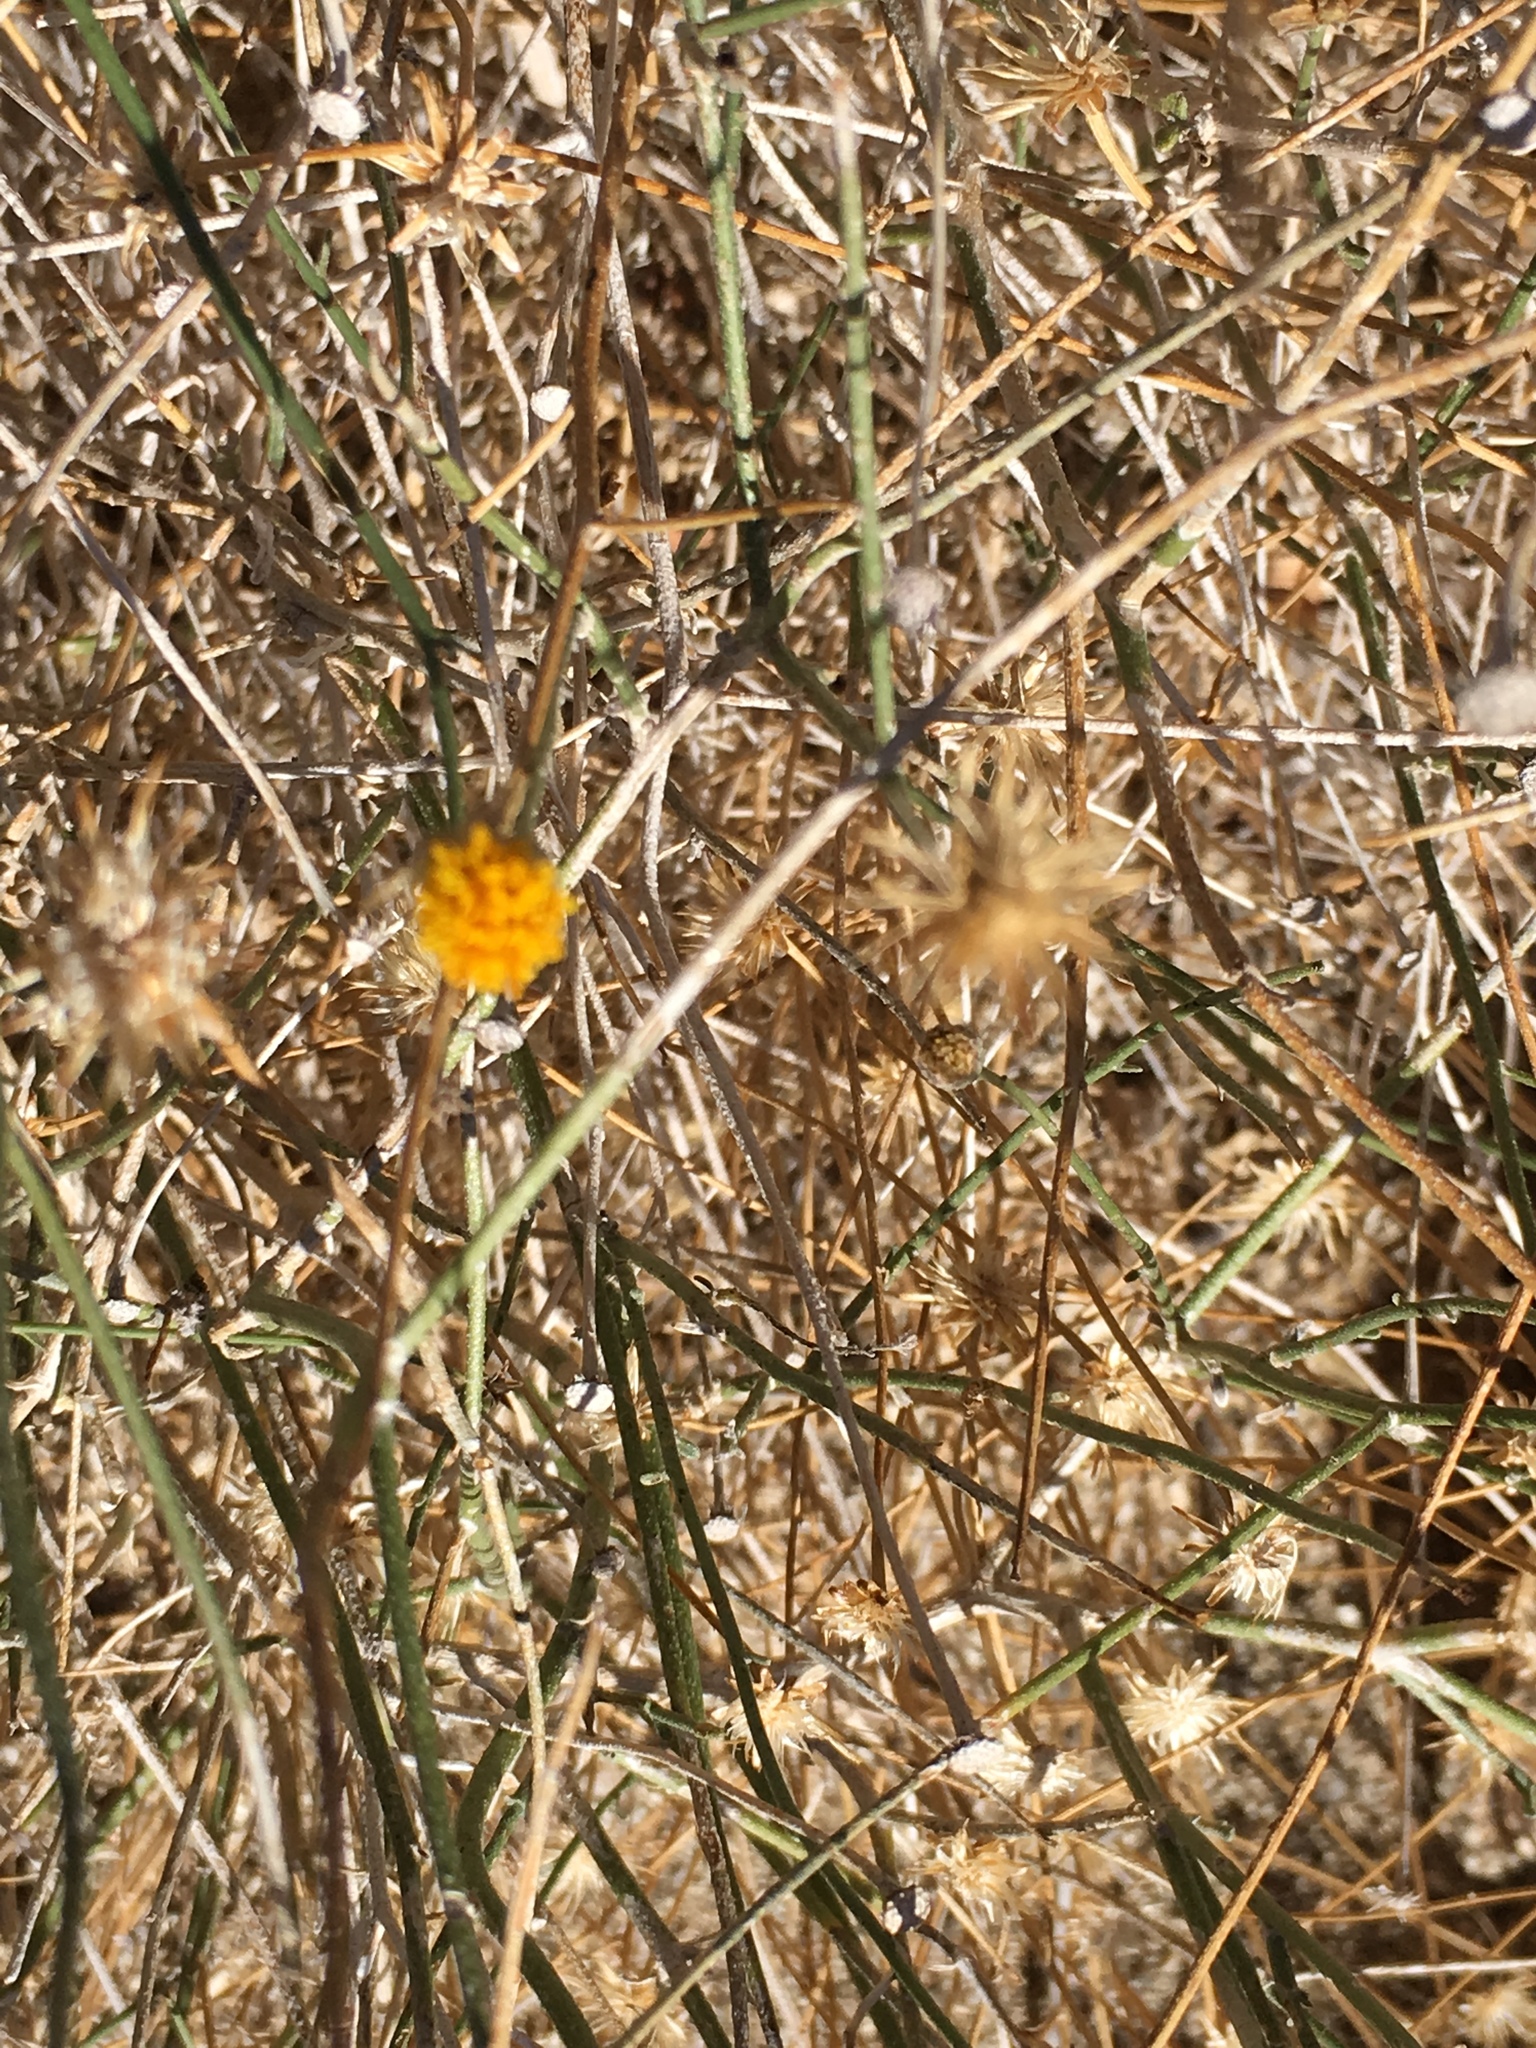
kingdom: Plantae
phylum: Tracheophyta
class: Magnoliopsida
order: Asterales
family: Asteraceae
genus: Bebbia
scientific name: Bebbia juncea
